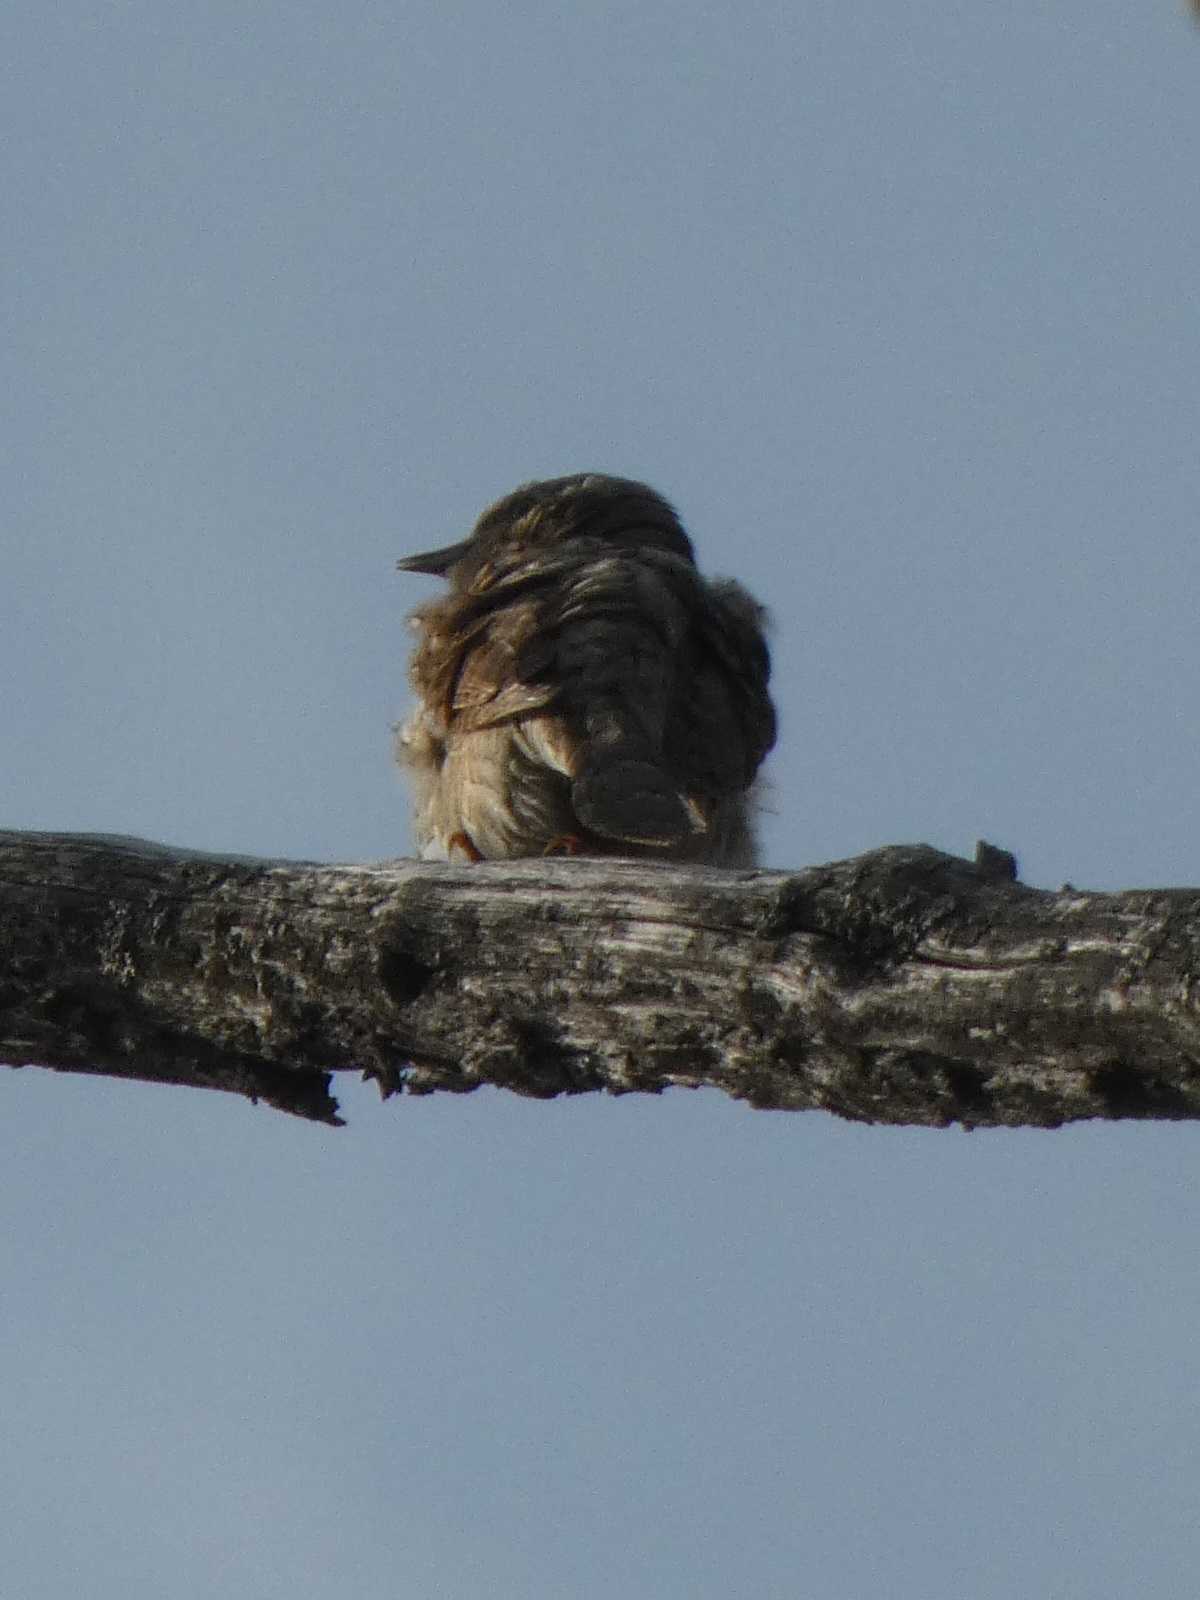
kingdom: Animalia
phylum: Chordata
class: Aves
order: Piciformes
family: Picidae
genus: Jynx
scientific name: Jynx torquilla
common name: Eurasian wryneck
